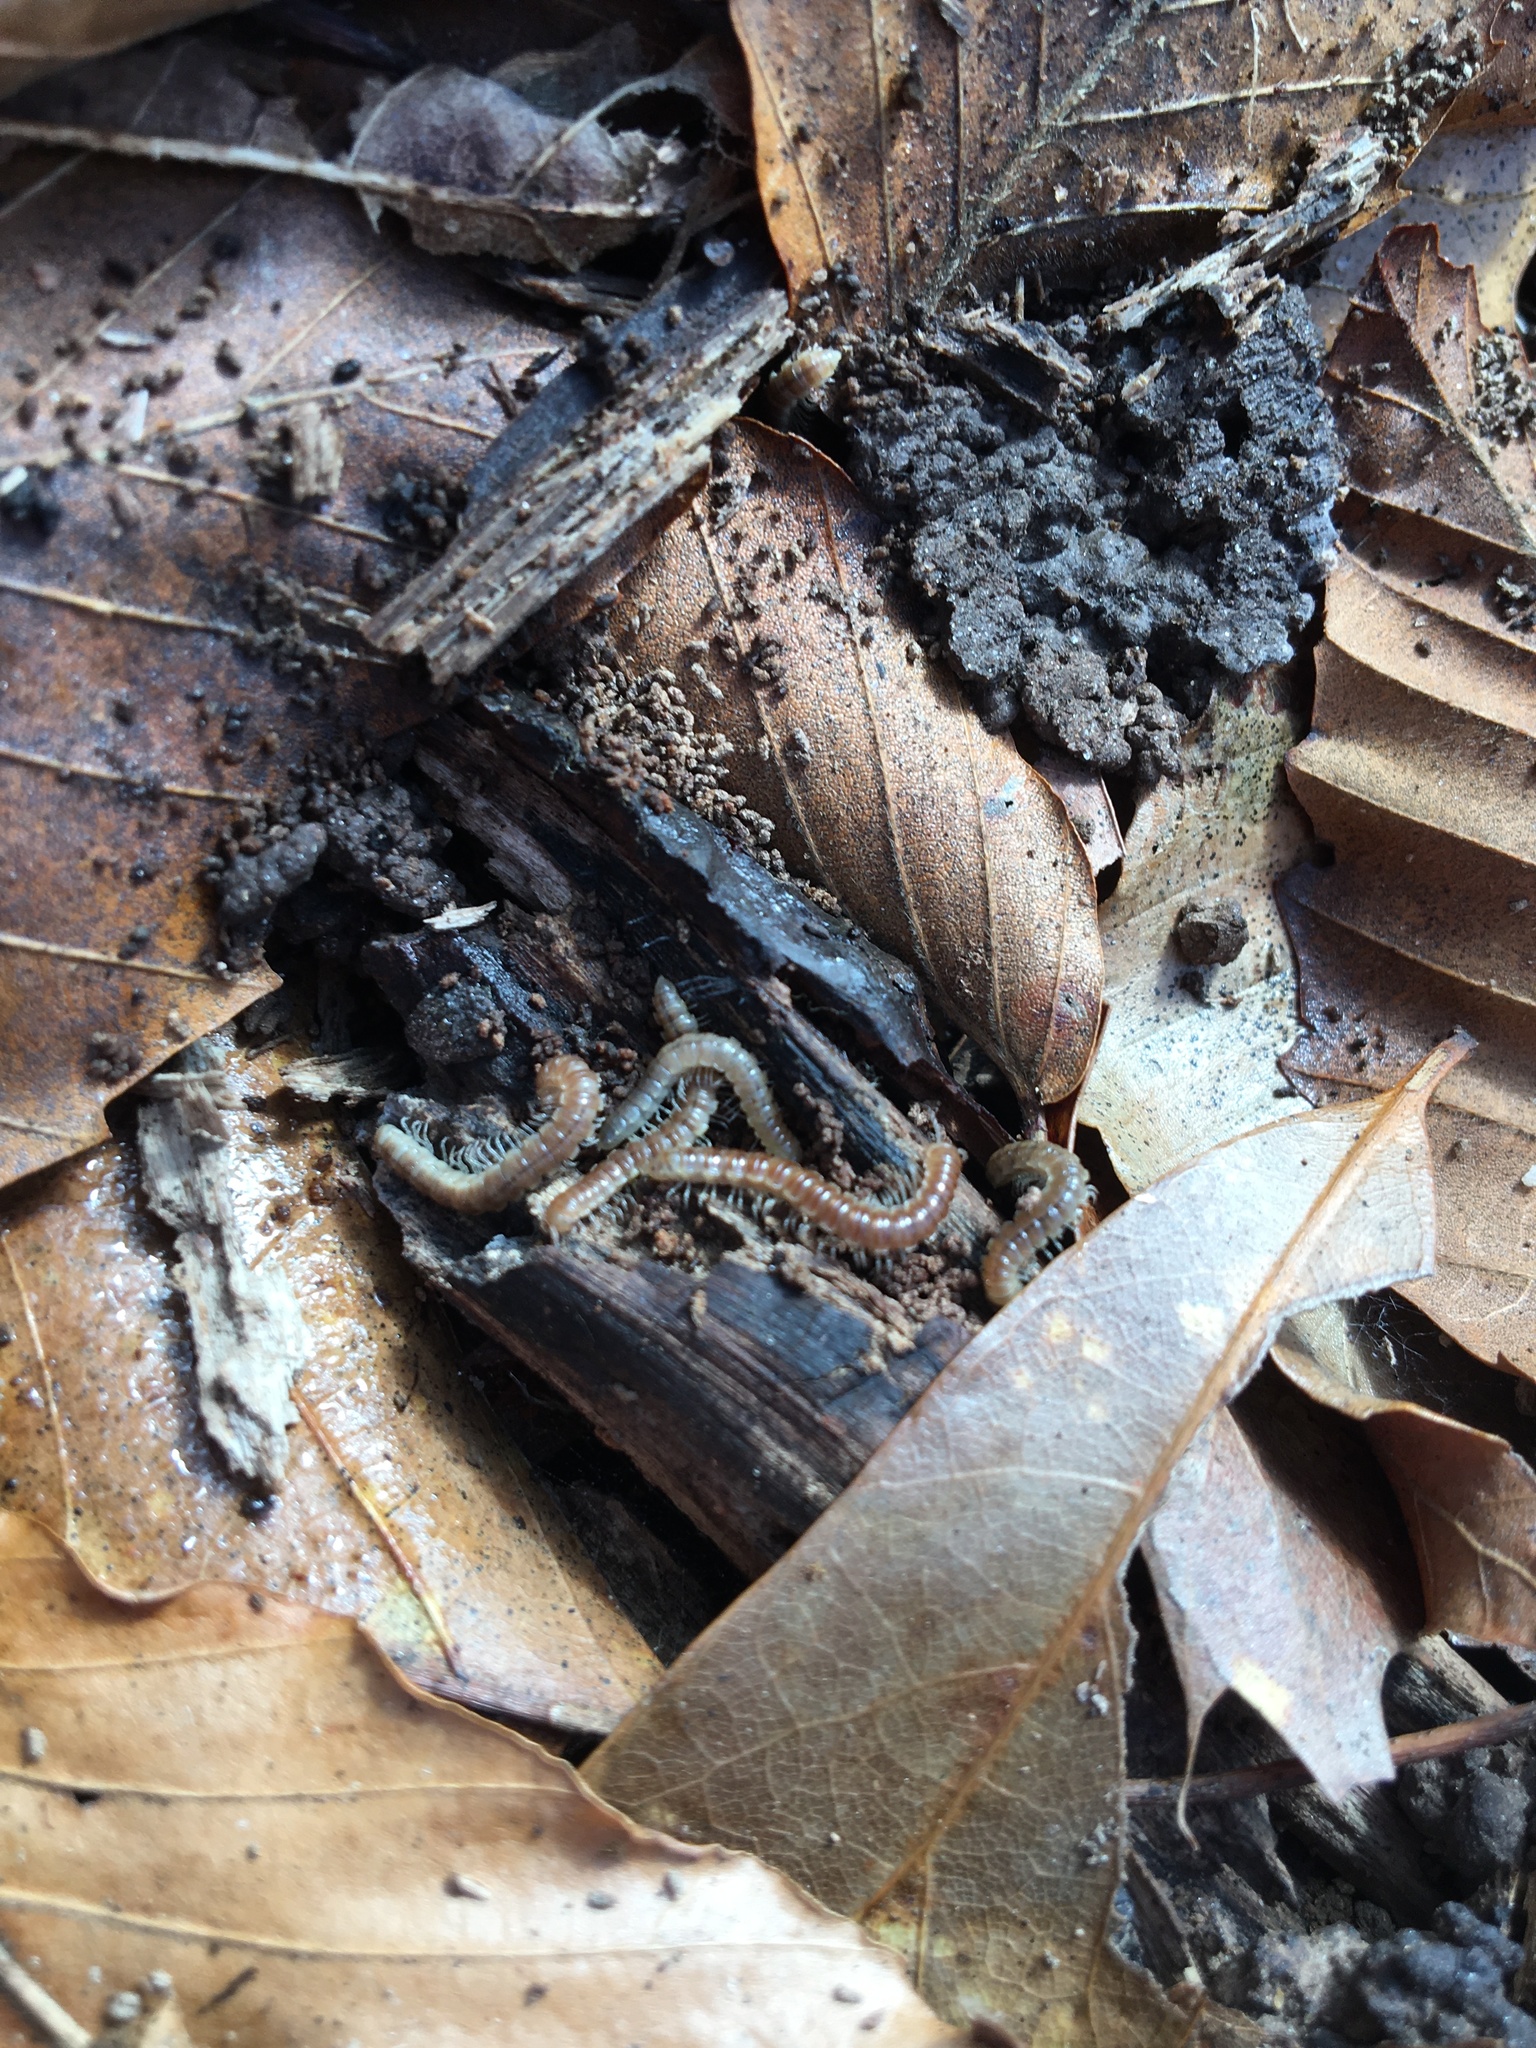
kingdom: Animalia
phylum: Arthropoda
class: Diplopoda
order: Polydesmida
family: Paradoxosomatidae
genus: Oxidus
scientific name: Oxidus gracilis
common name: Greenhouse millipede
